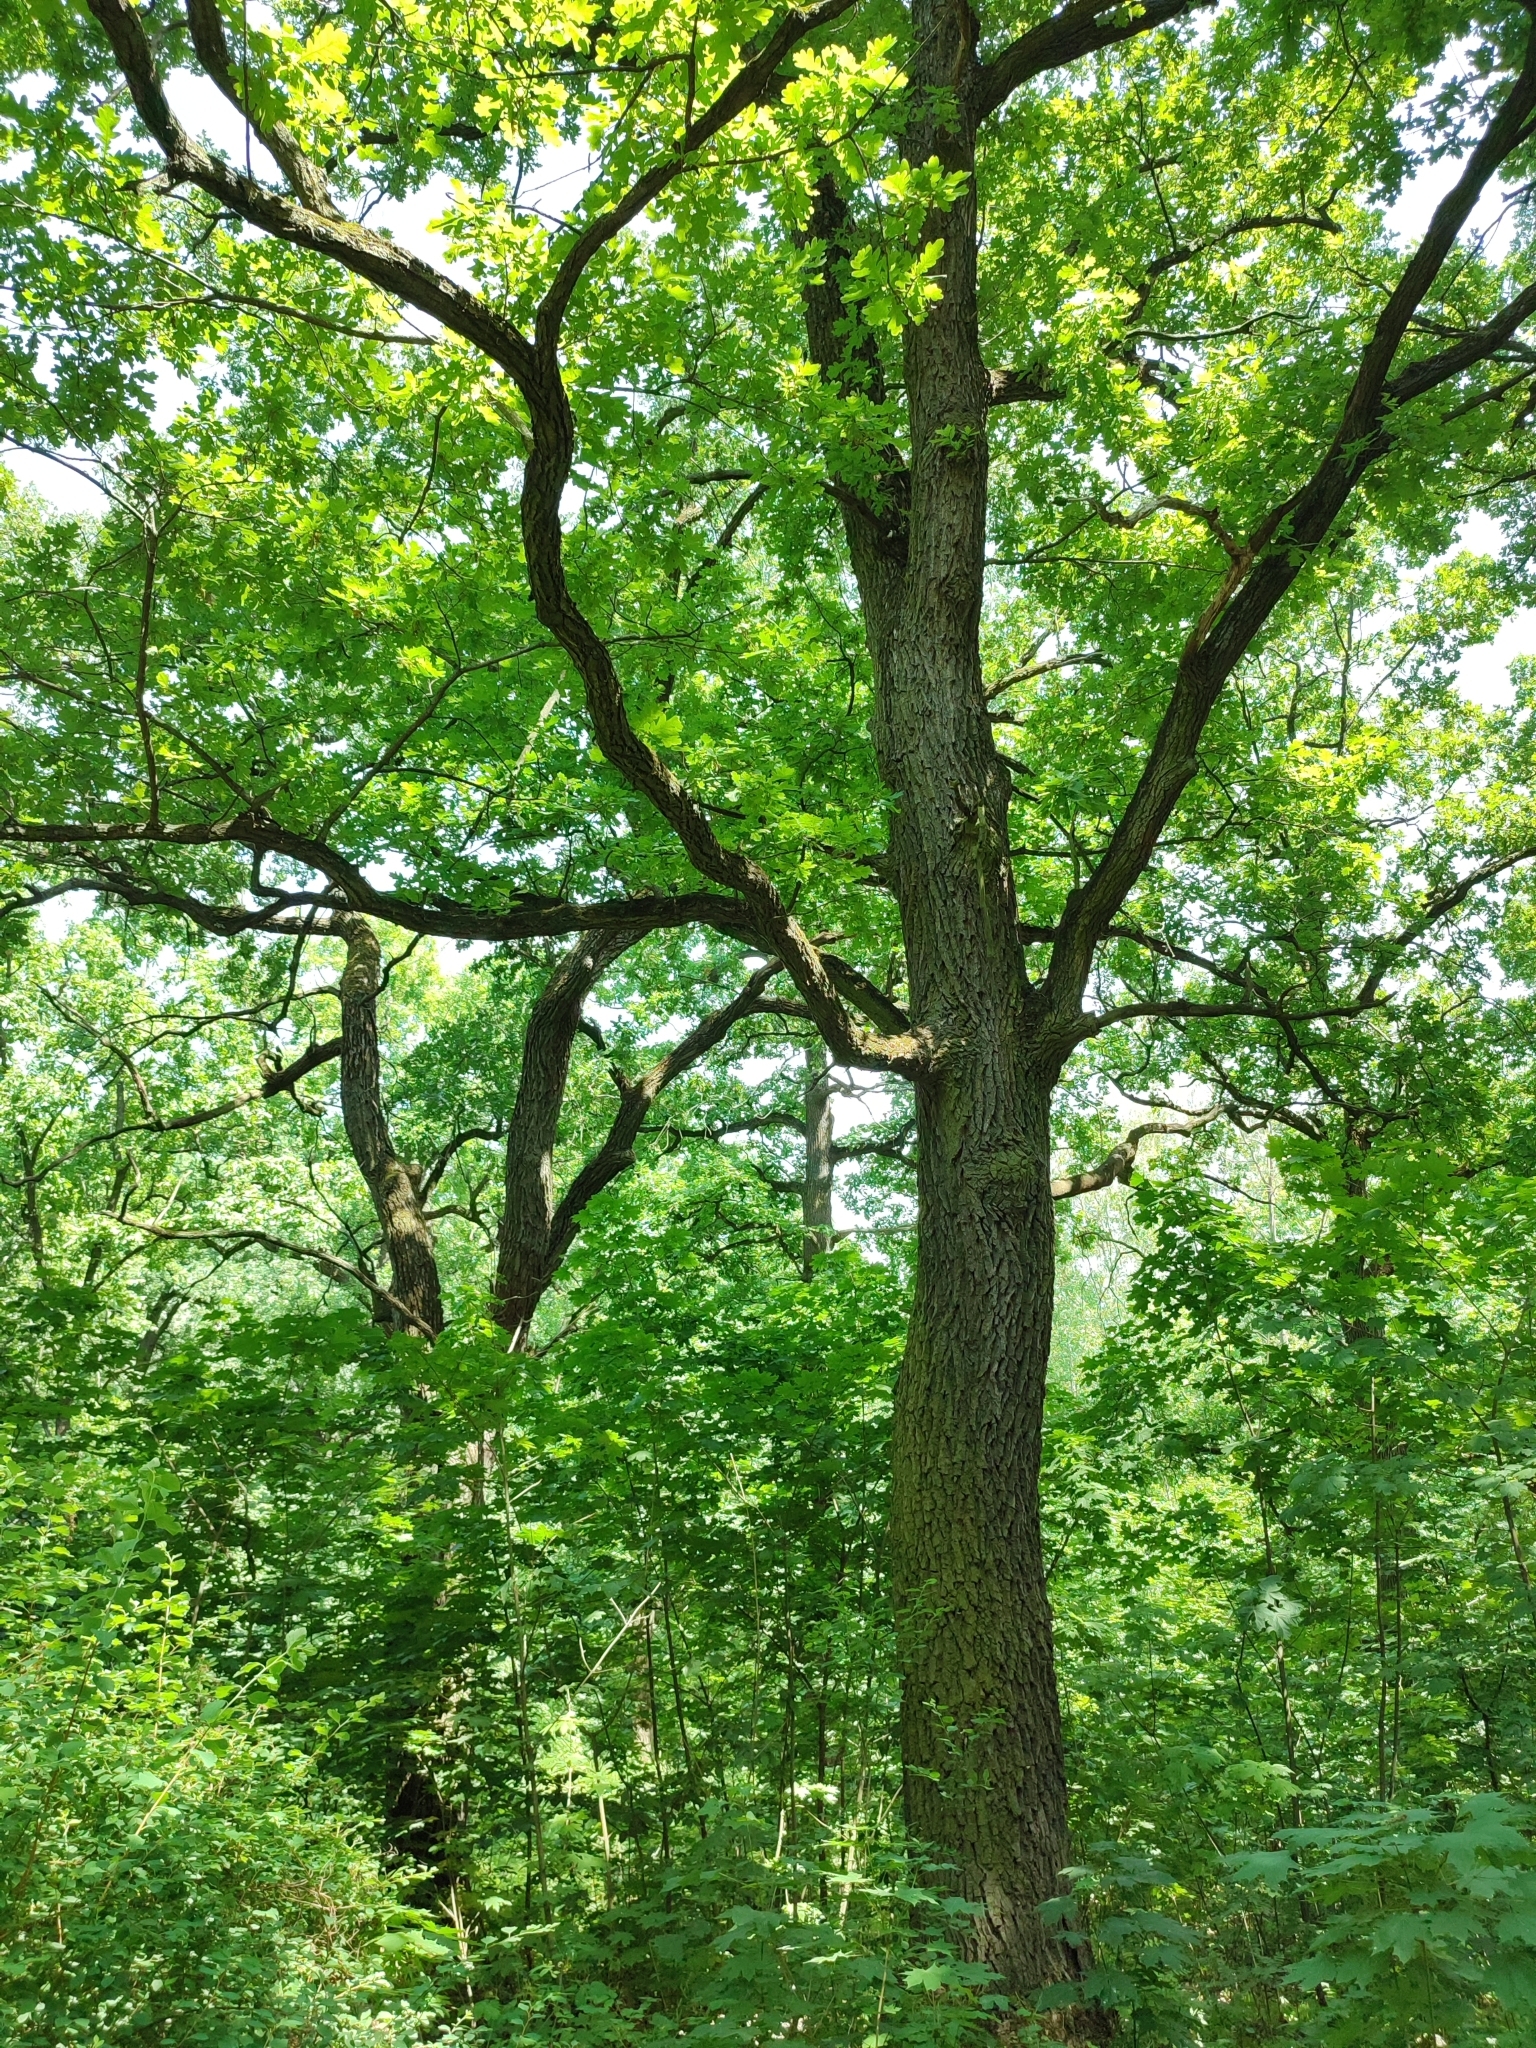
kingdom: Plantae
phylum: Tracheophyta
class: Magnoliopsida
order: Fagales
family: Fagaceae
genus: Quercus
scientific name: Quercus robur
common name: Pedunculate oak
